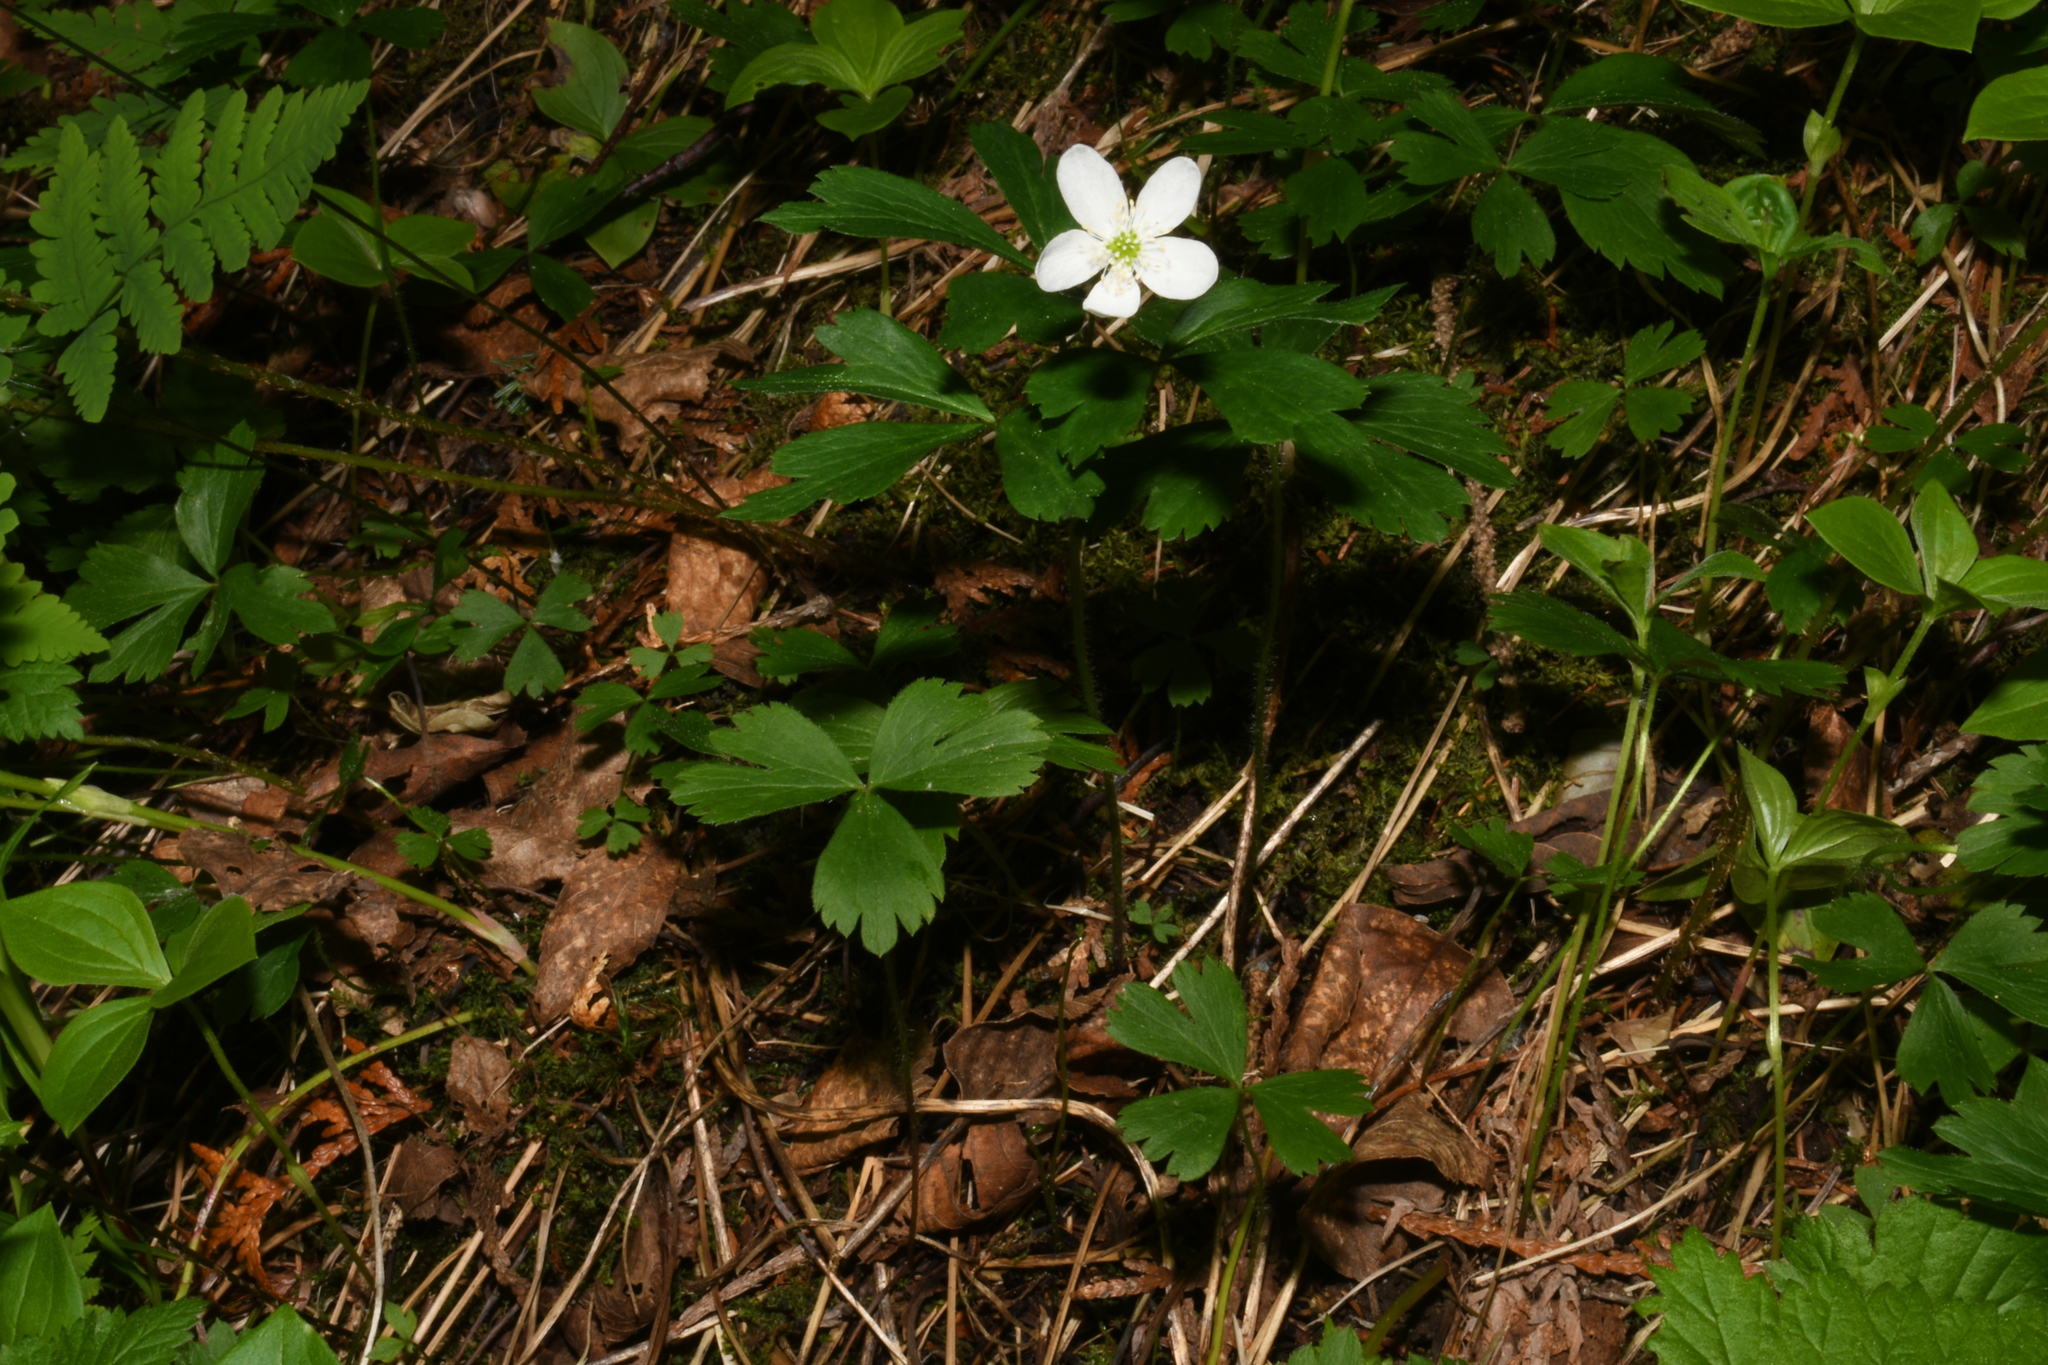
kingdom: Plantae
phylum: Tracheophyta
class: Magnoliopsida
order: Ranunculales
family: Ranunculaceae
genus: Anemone
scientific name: Anemone quinquefolia
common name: Wood anemone
